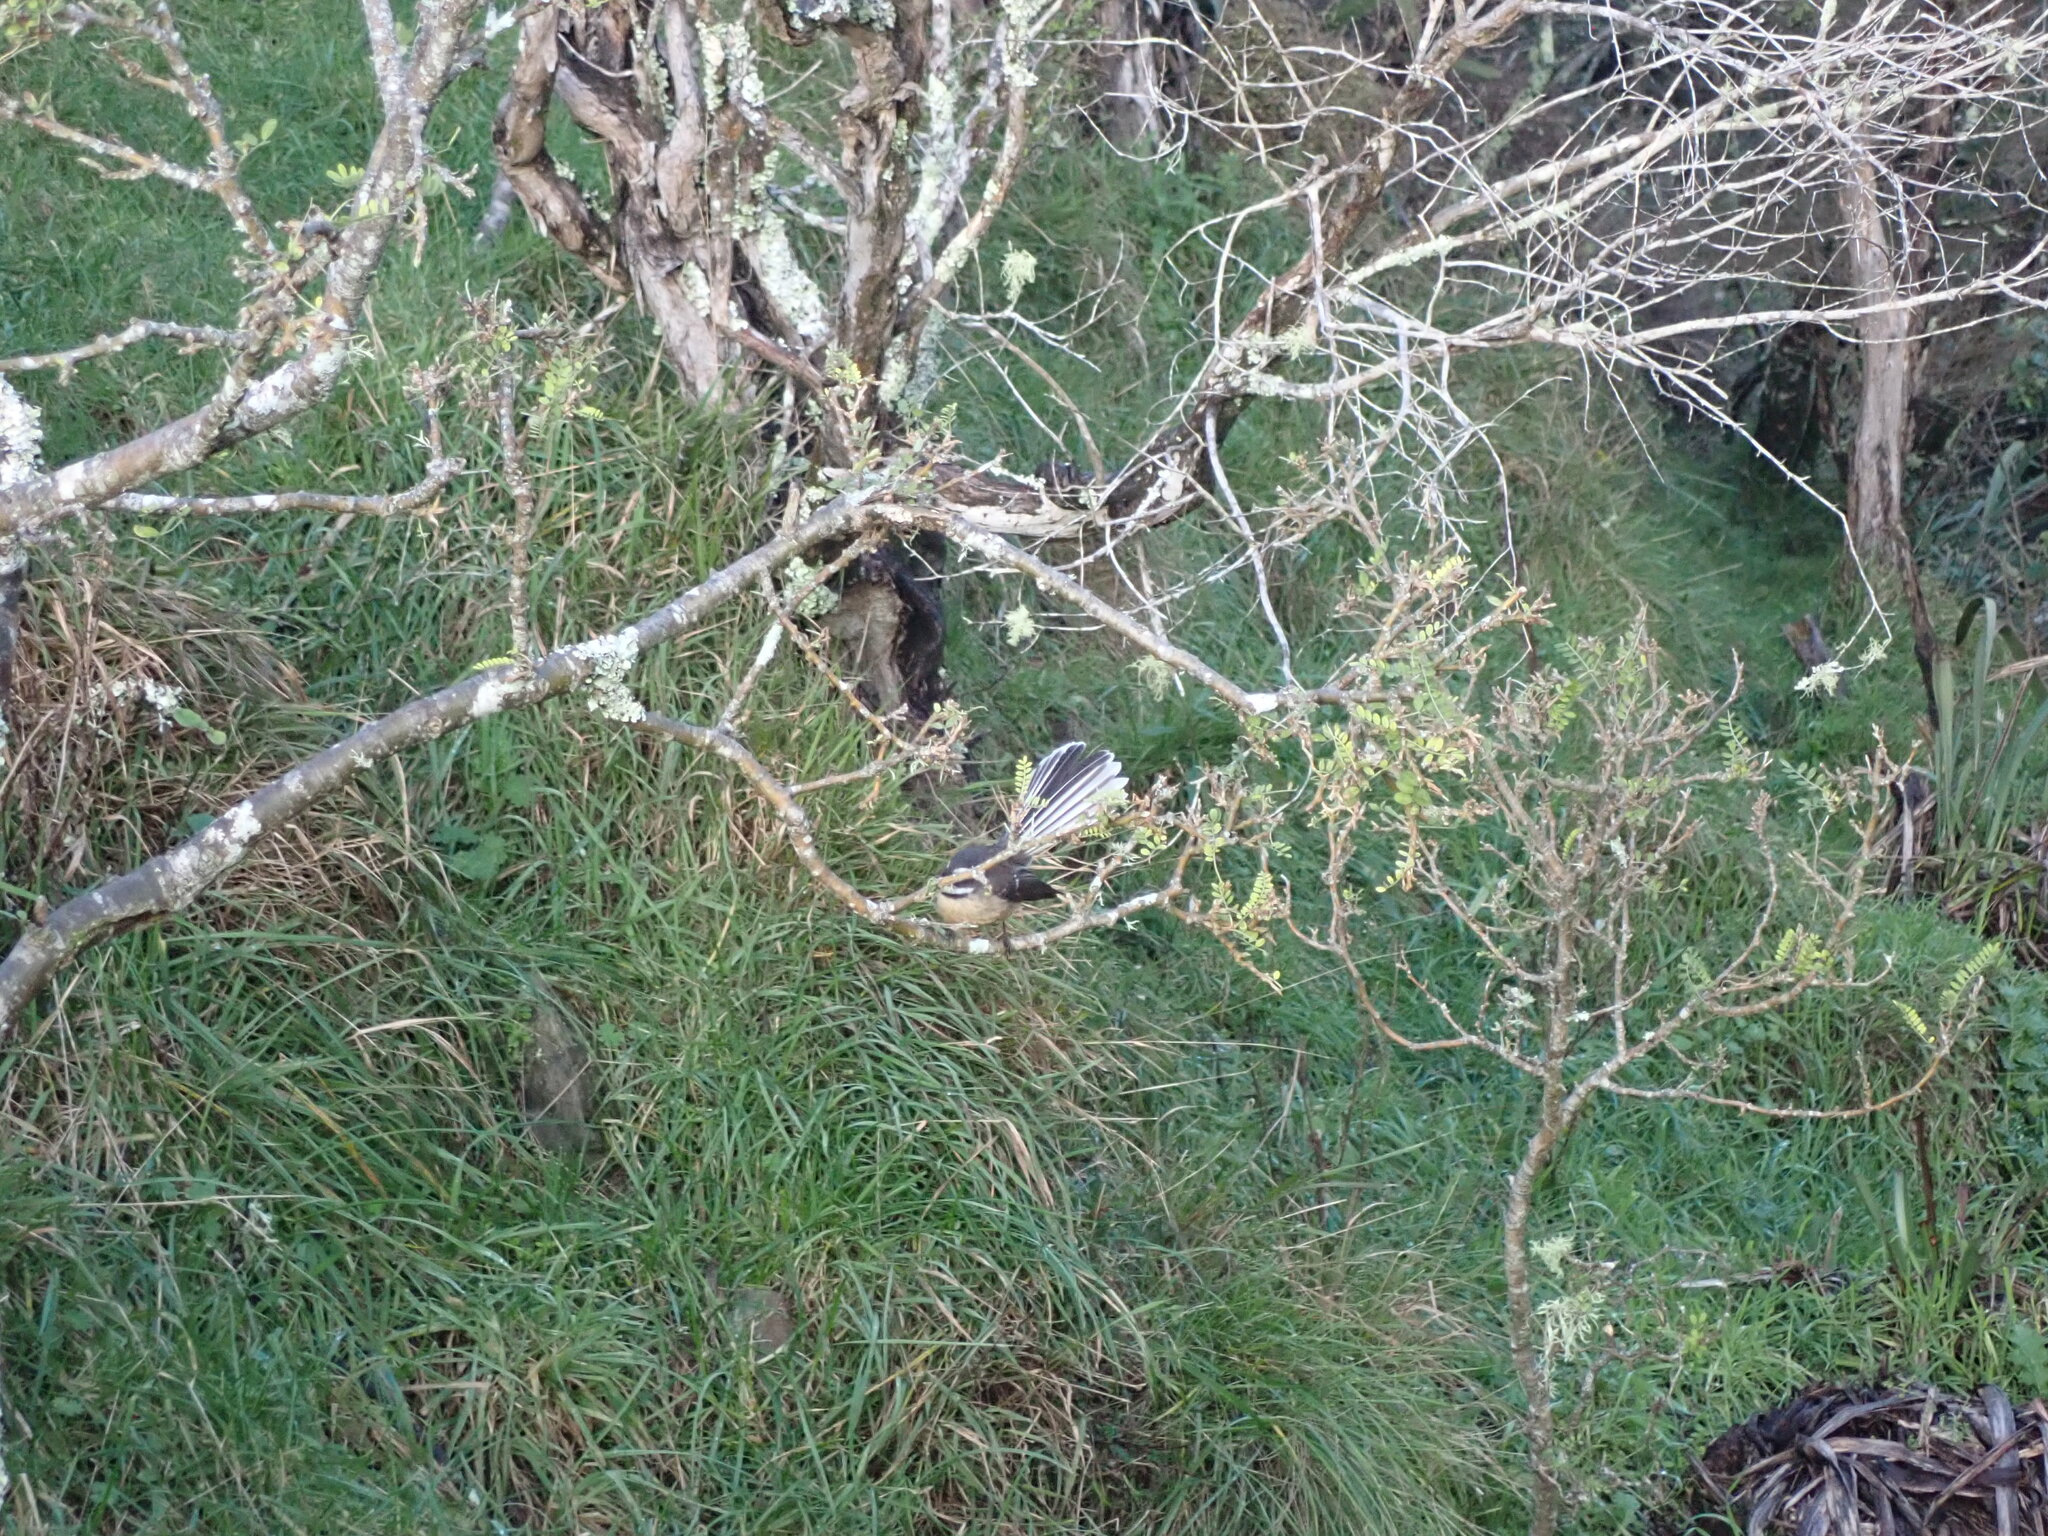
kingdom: Animalia
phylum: Chordata
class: Aves
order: Passeriformes
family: Rhipiduridae
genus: Rhipidura
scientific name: Rhipidura fuliginosa
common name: New zealand fantail
